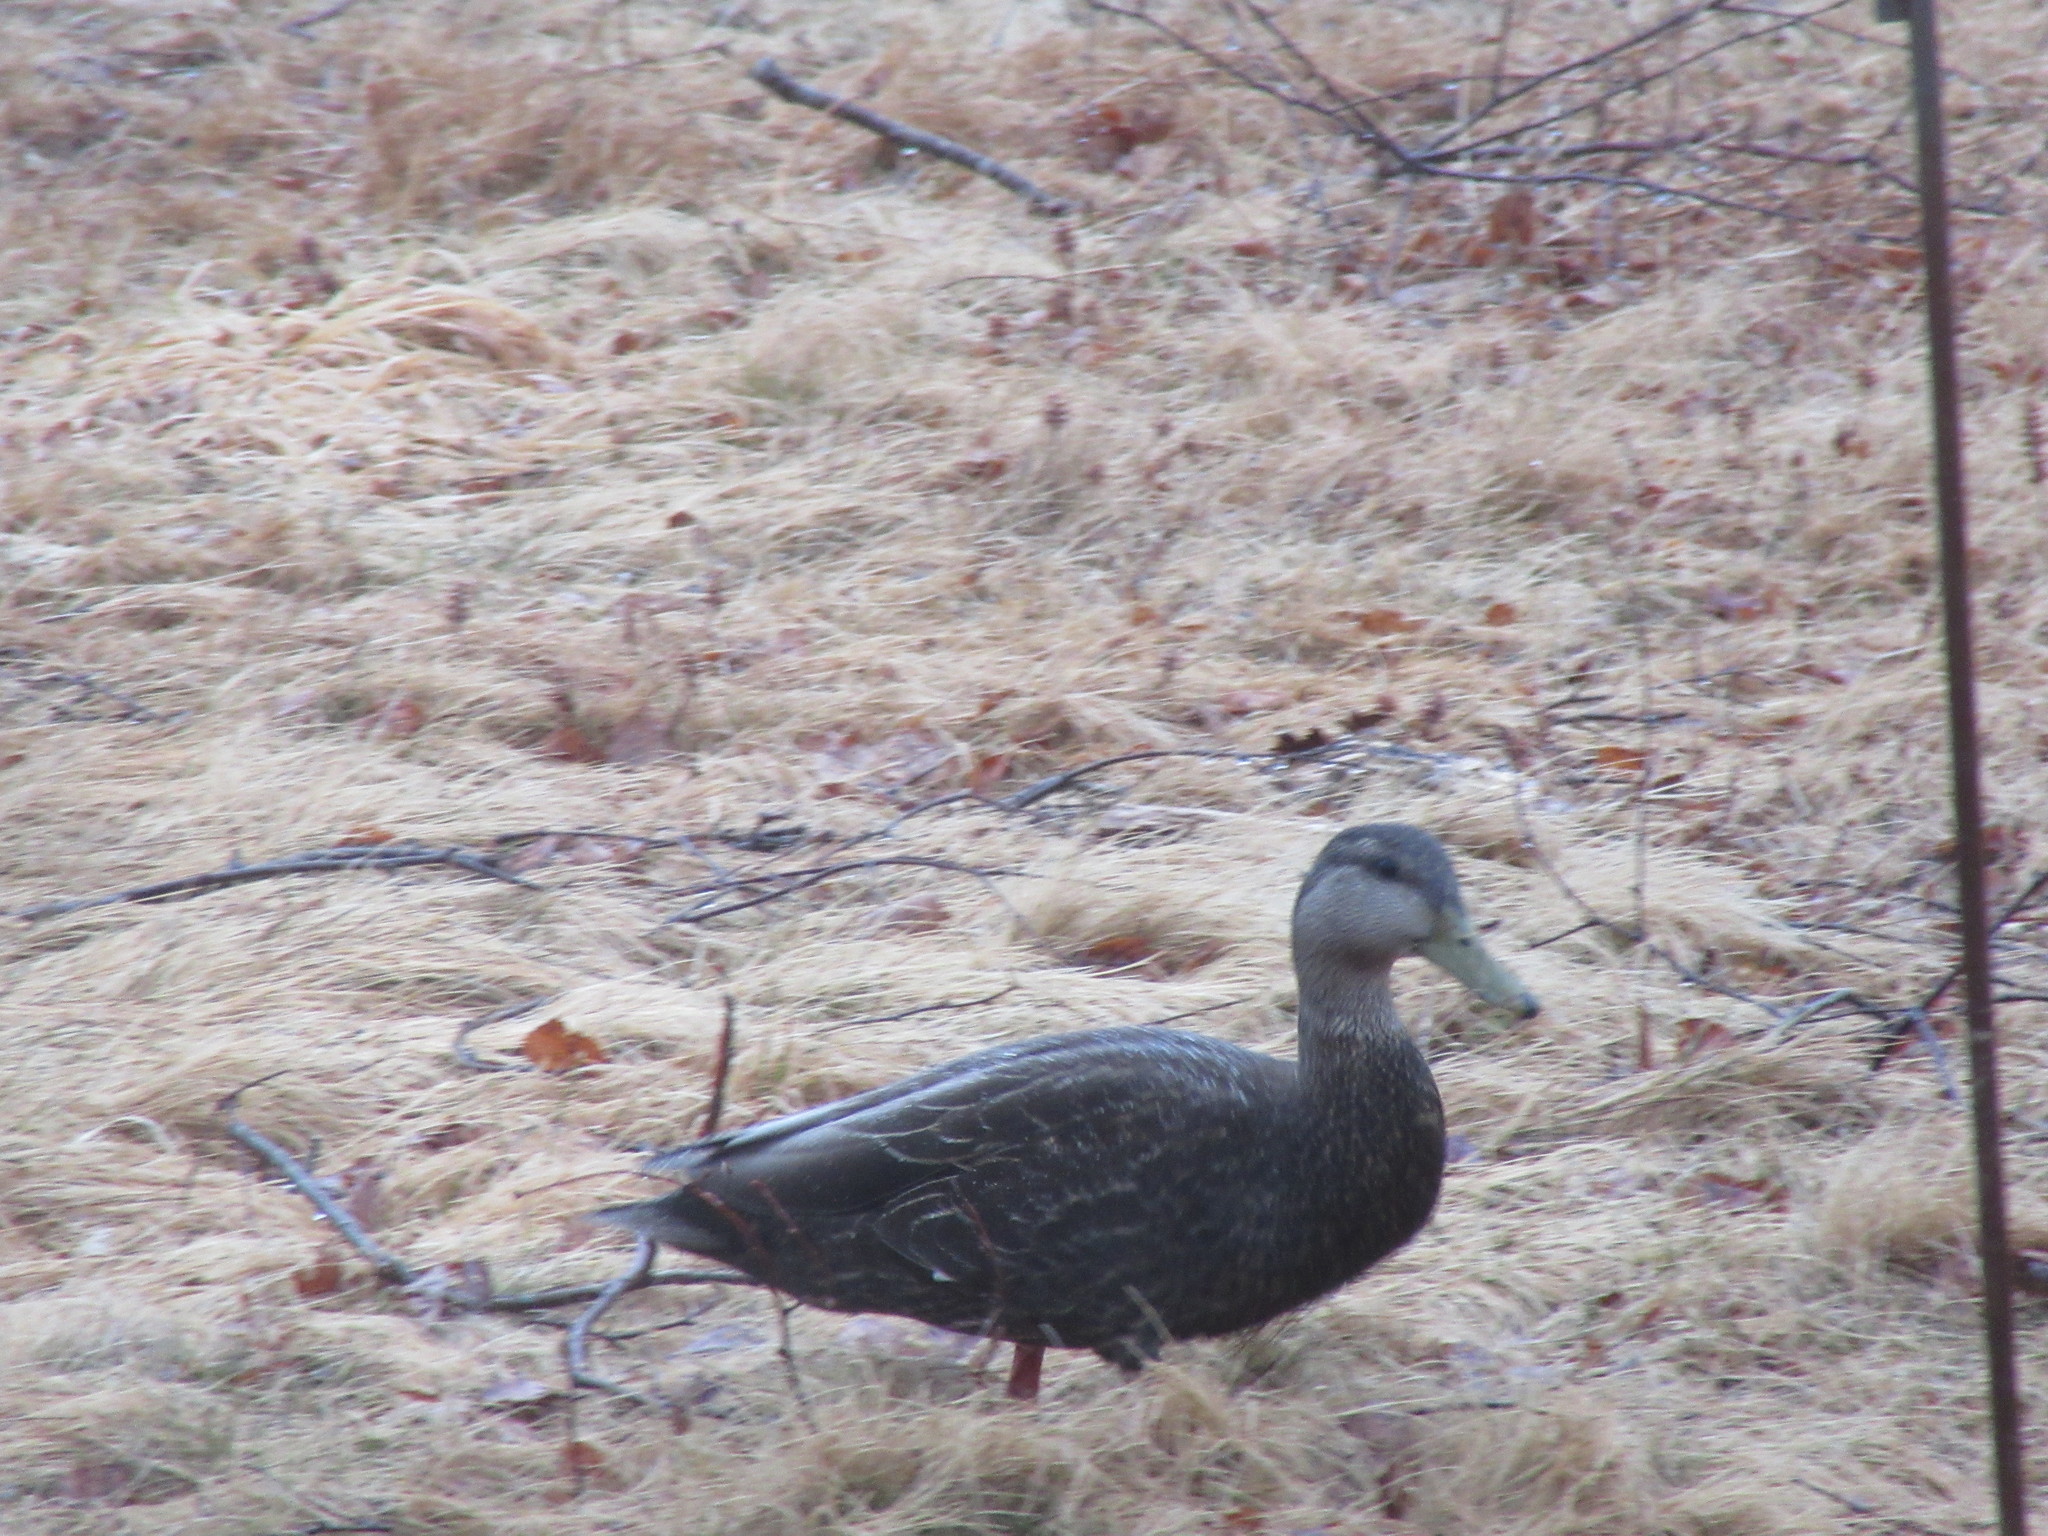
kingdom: Animalia
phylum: Chordata
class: Aves
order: Anseriformes
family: Anatidae
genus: Anas
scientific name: Anas rubripes
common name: American black duck
